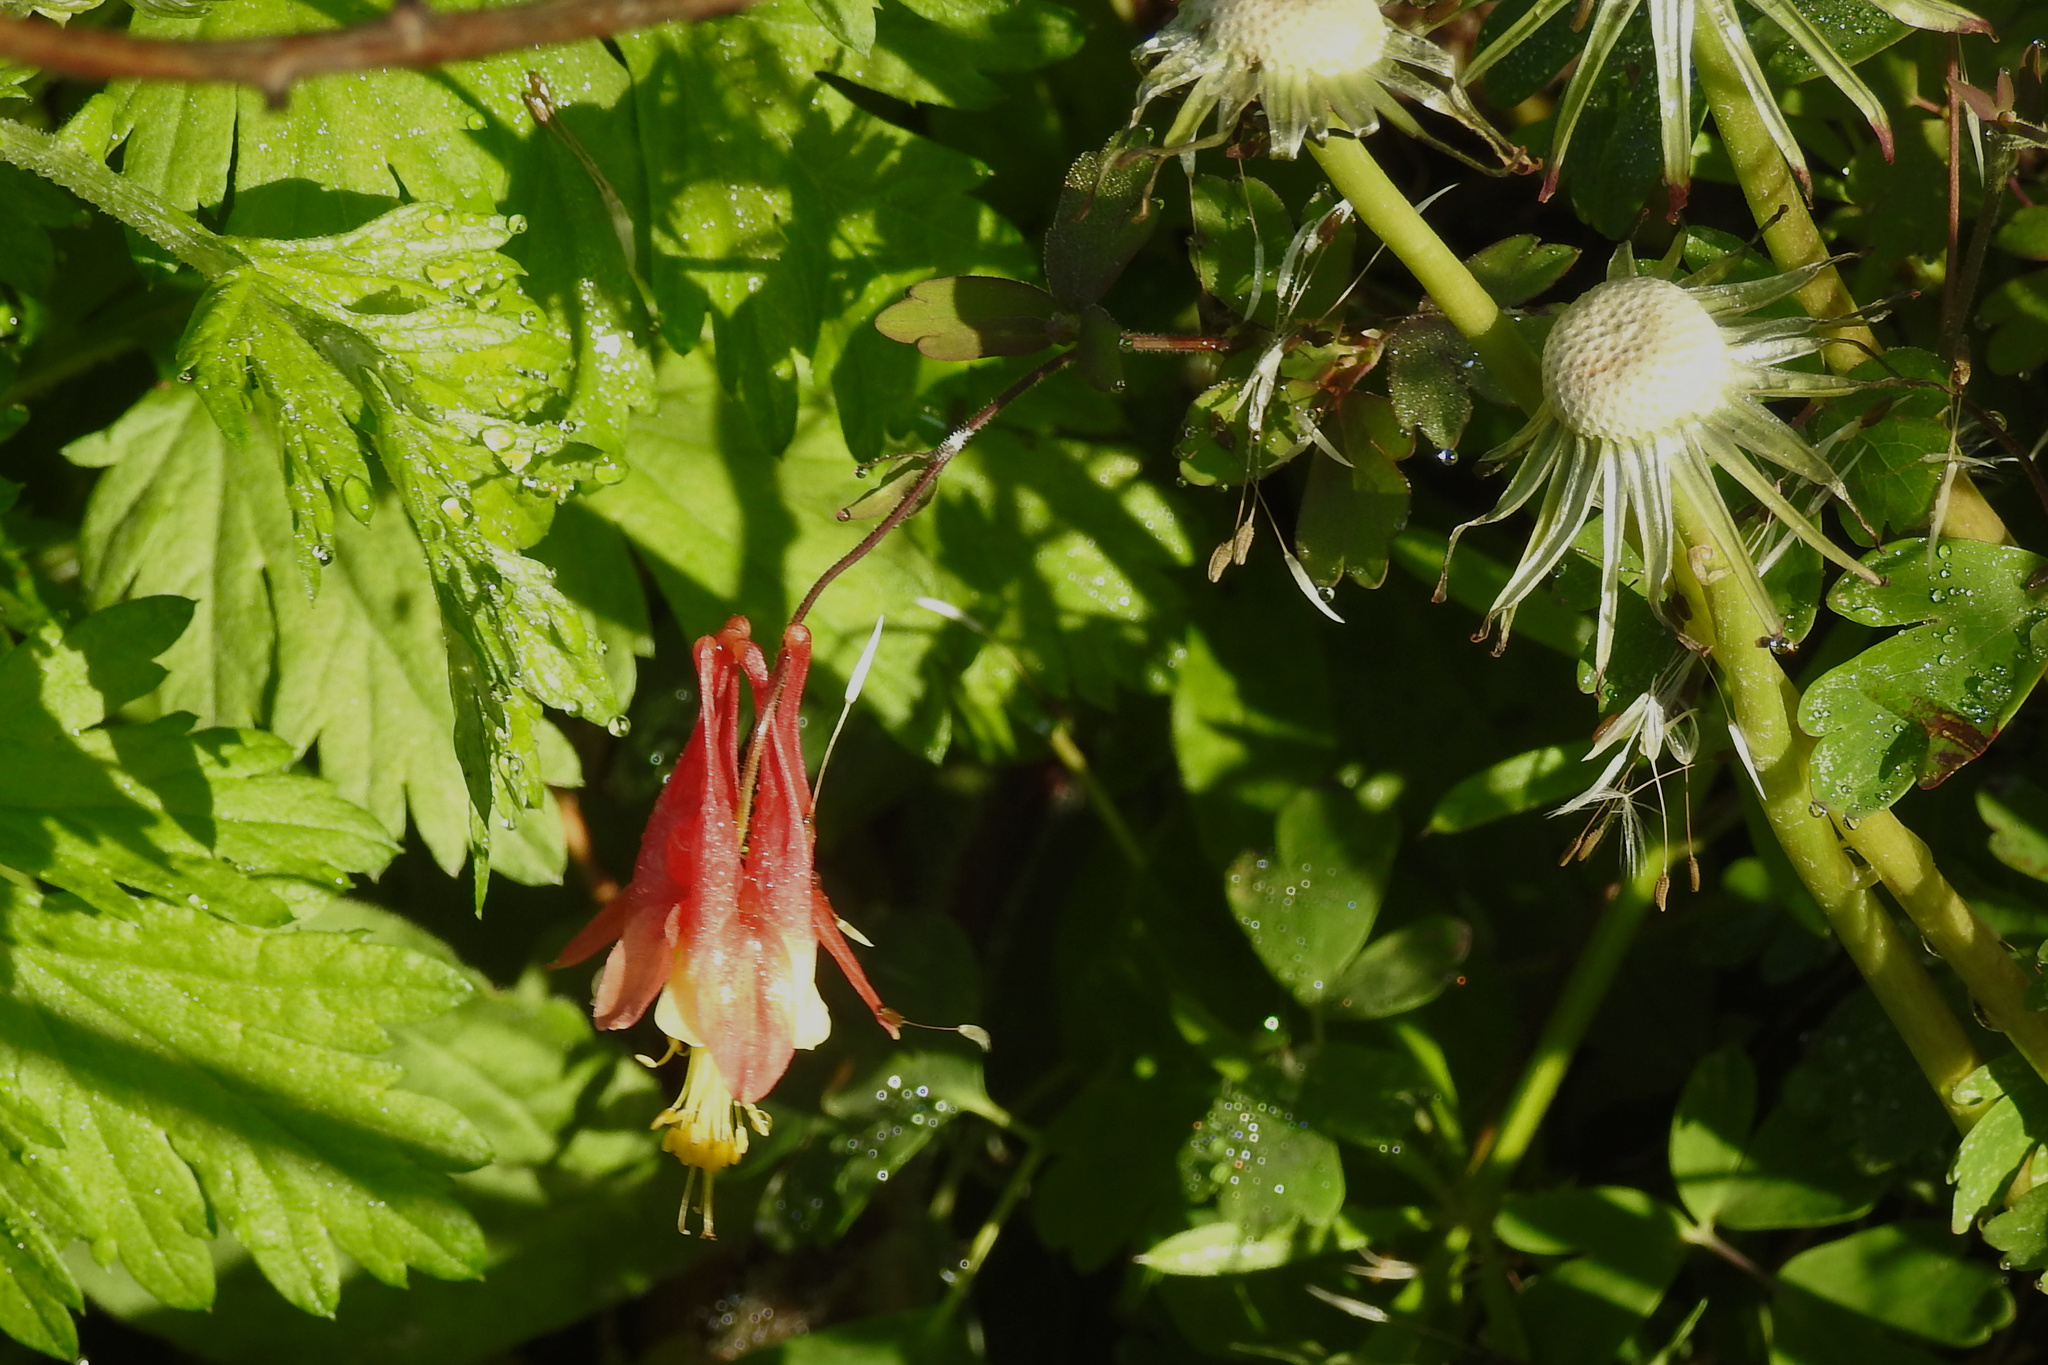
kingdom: Plantae
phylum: Tracheophyta
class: Magnoliopsida
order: Ranunculales
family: Ranunculaceae
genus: Aquilegia
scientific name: Aquilegia canadensis
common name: American columbine
